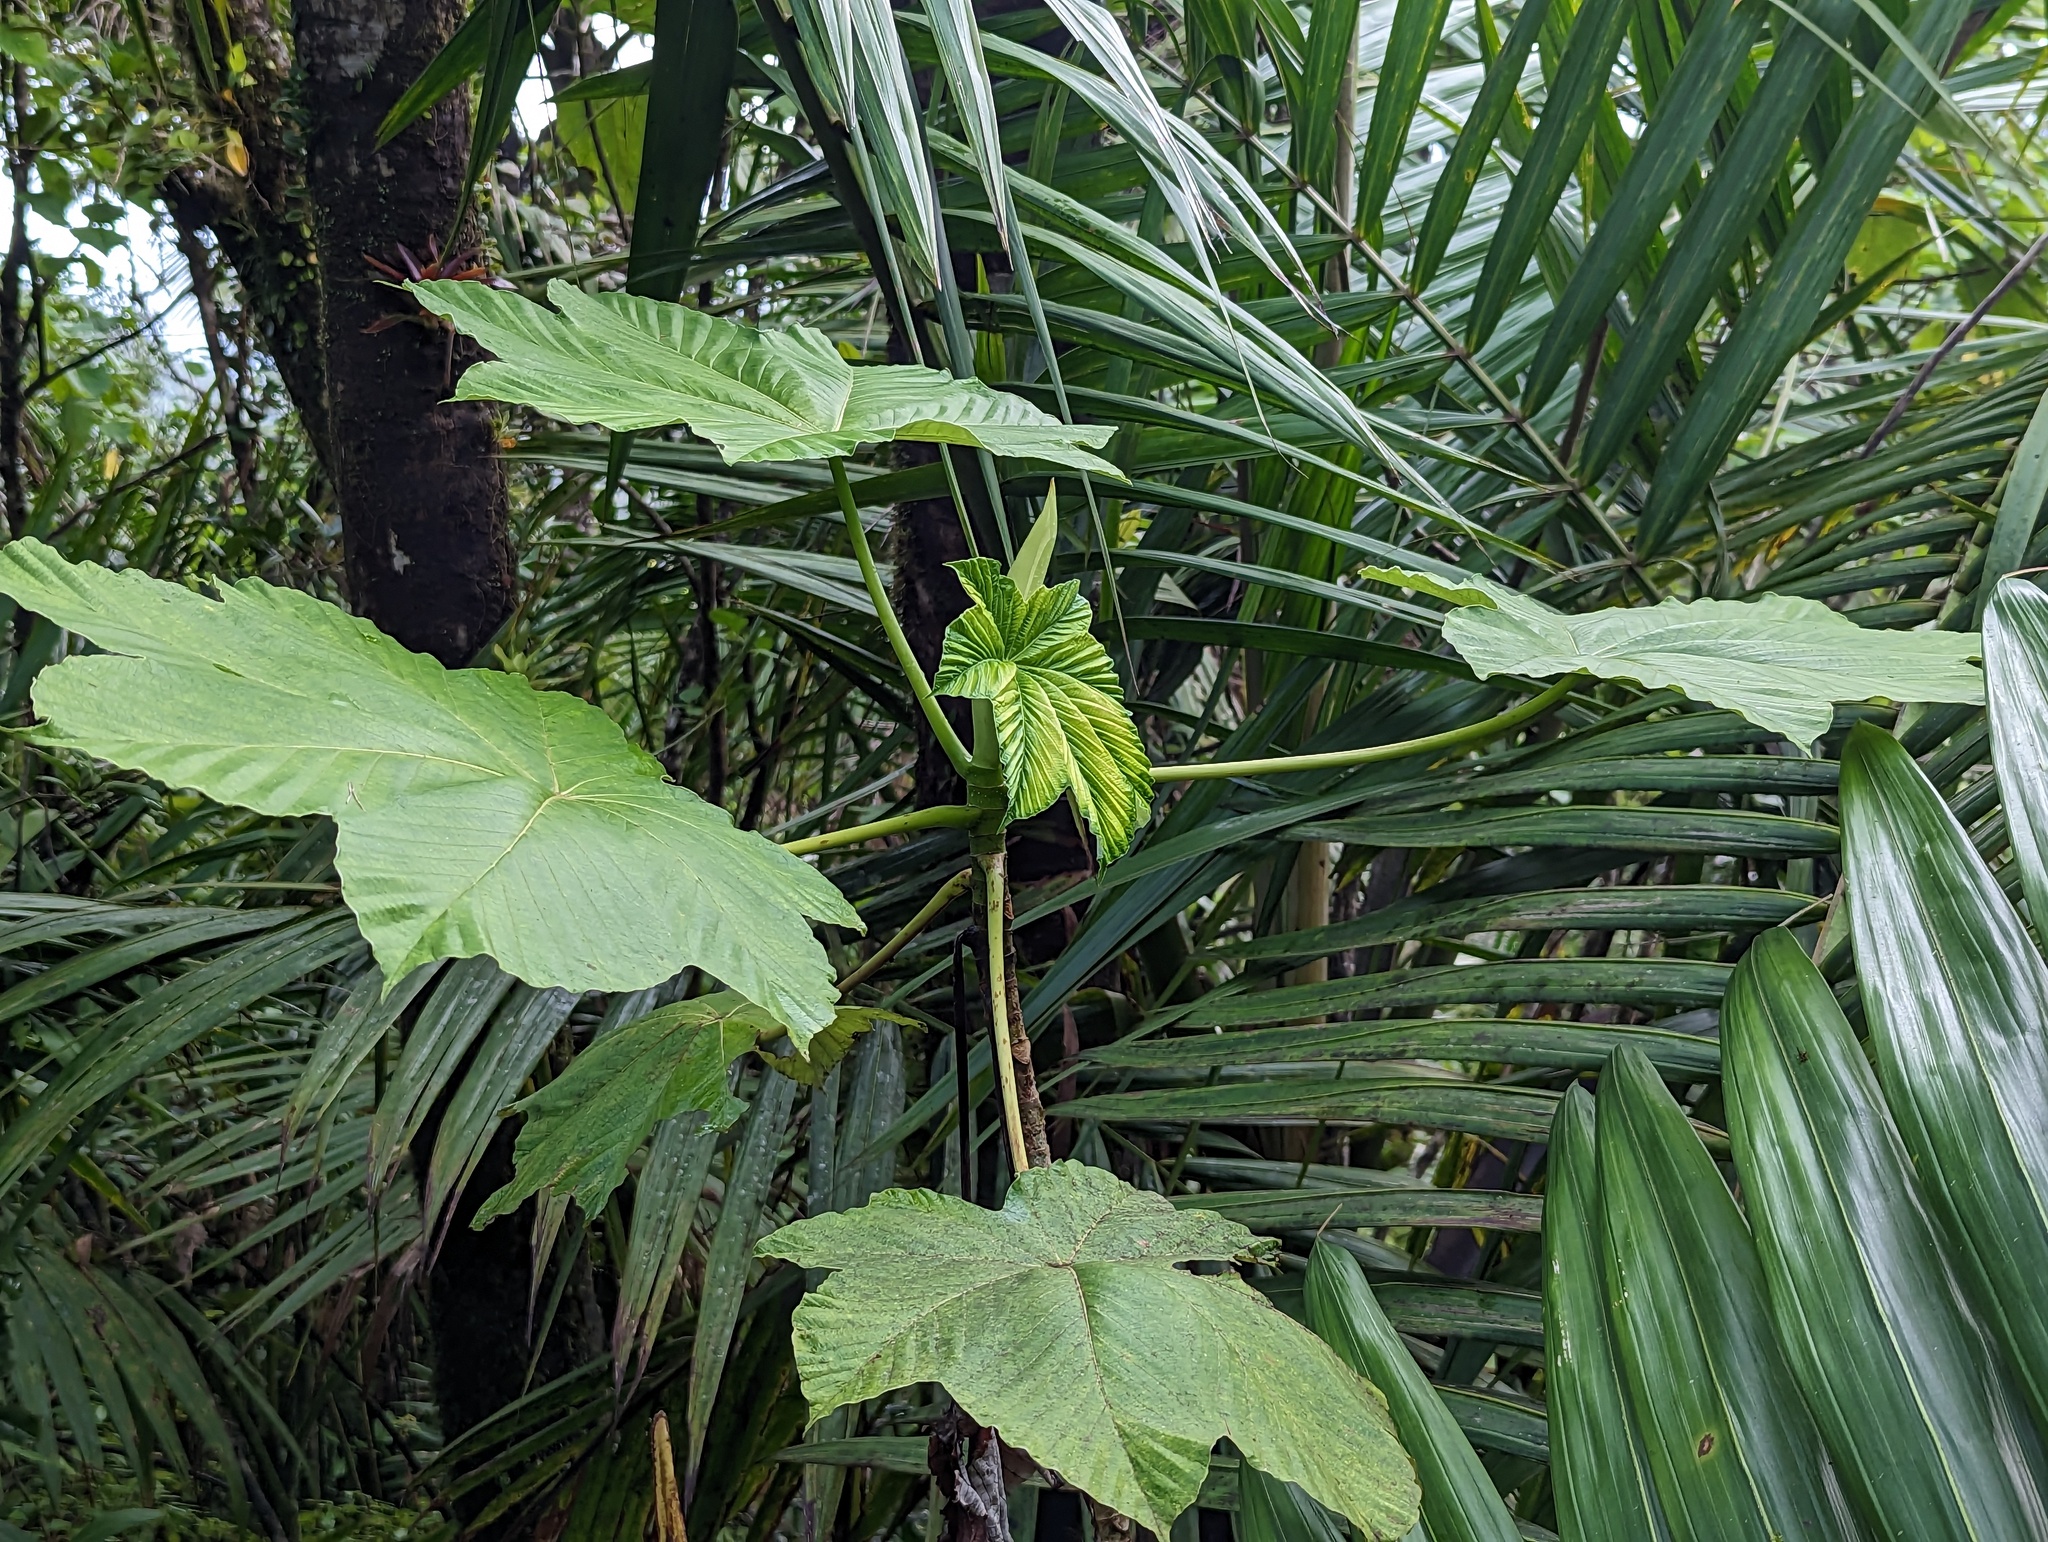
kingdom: Plantae
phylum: Tracheophyta
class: Magnoliopsida
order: Rosales
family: Urticaceae
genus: Cecropia
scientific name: Cecropia schreberiana
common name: Trumpet tree
